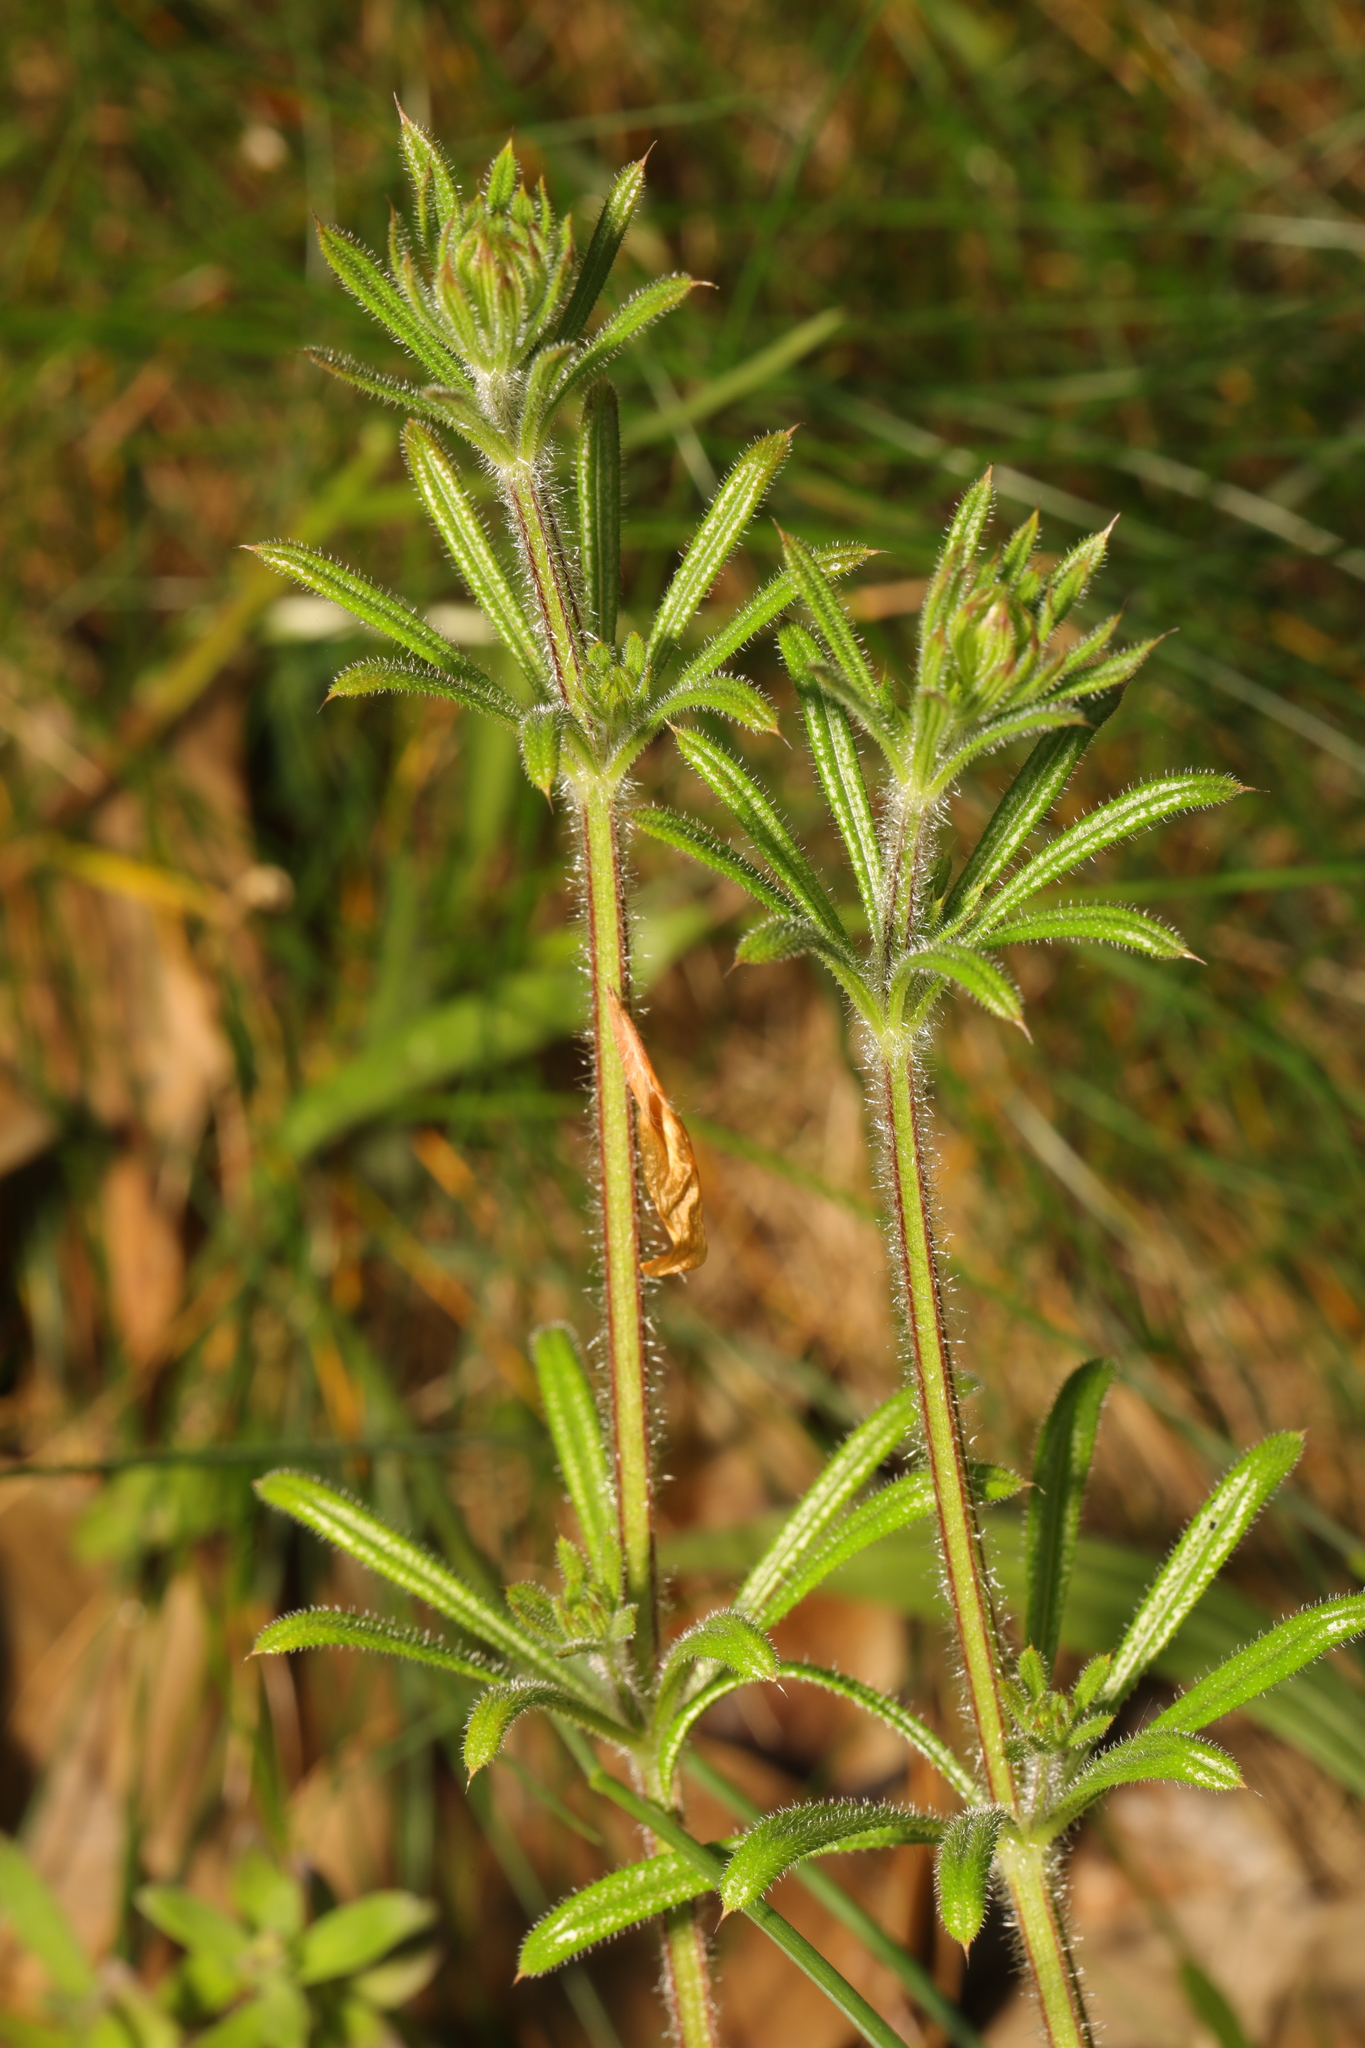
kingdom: Plantae
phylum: Tracheophyta
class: Magnoliopsida
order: Gentianales
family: Rubiaceae
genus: Galium
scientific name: Galium aparine
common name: Cleavers
